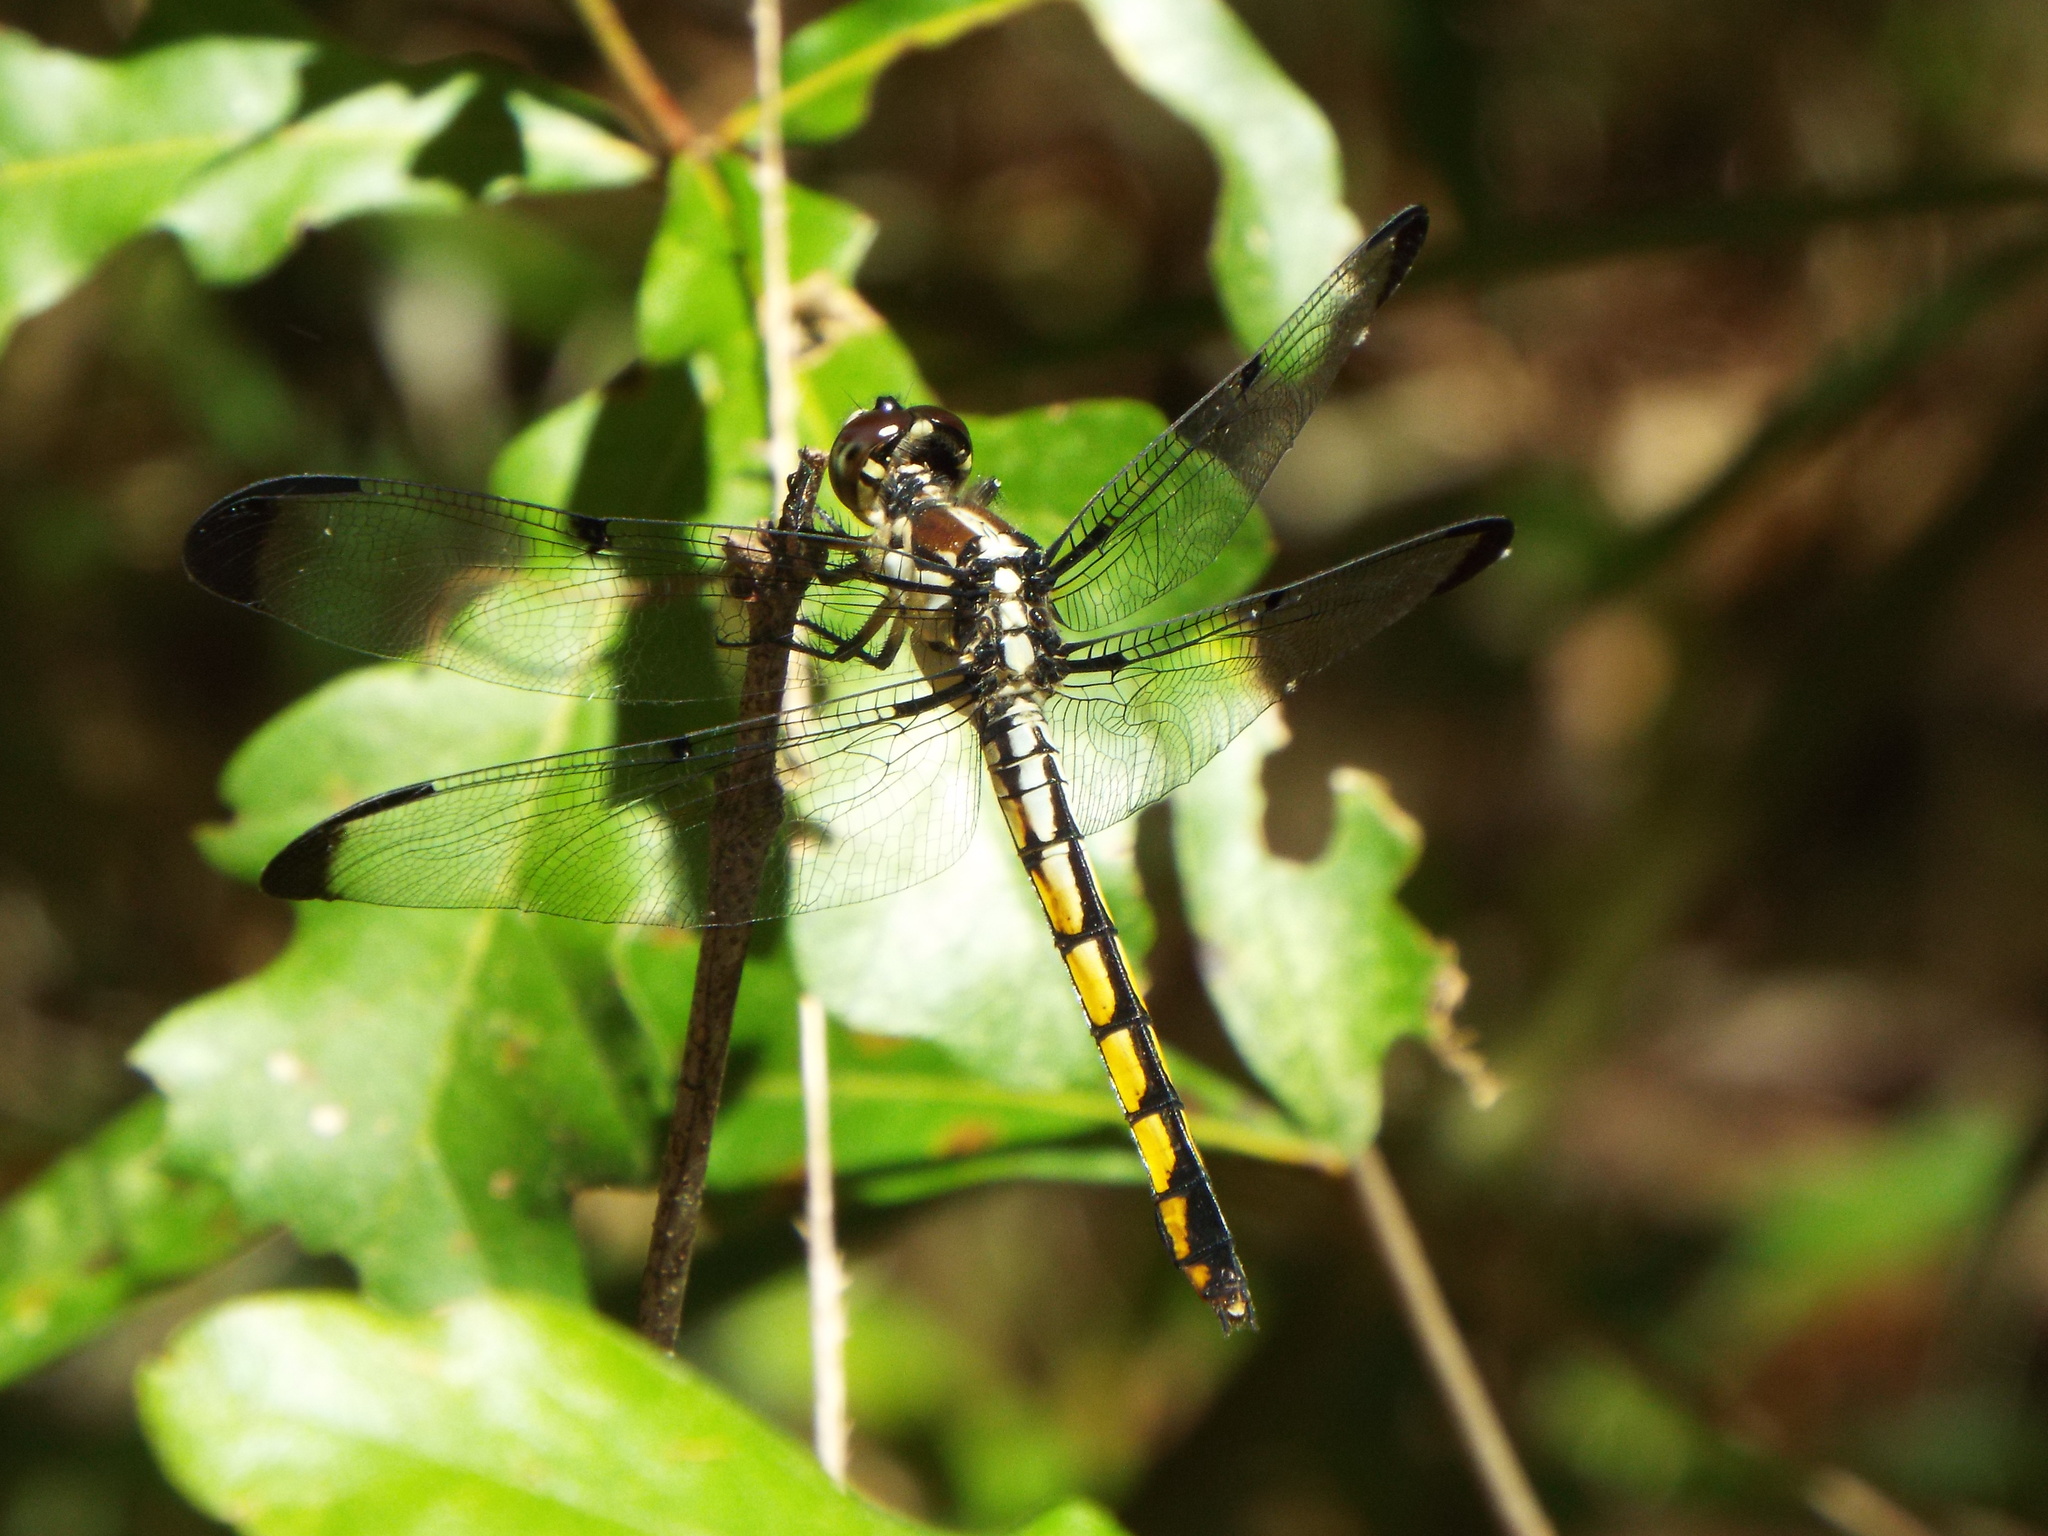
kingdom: Animalia
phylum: Arthropoda
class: Insecta
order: Odonata
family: Libellulidae
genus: Libellula
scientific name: Libellula vibrans
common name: Great blue skimmer
